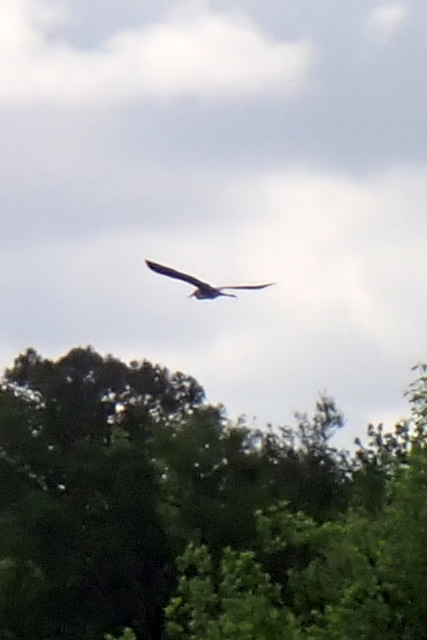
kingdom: Animalia
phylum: Chordata
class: Aves
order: Pelecaniformes
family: Ardeidae
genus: Ardea
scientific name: Ardea herodias
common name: Great blue heron
